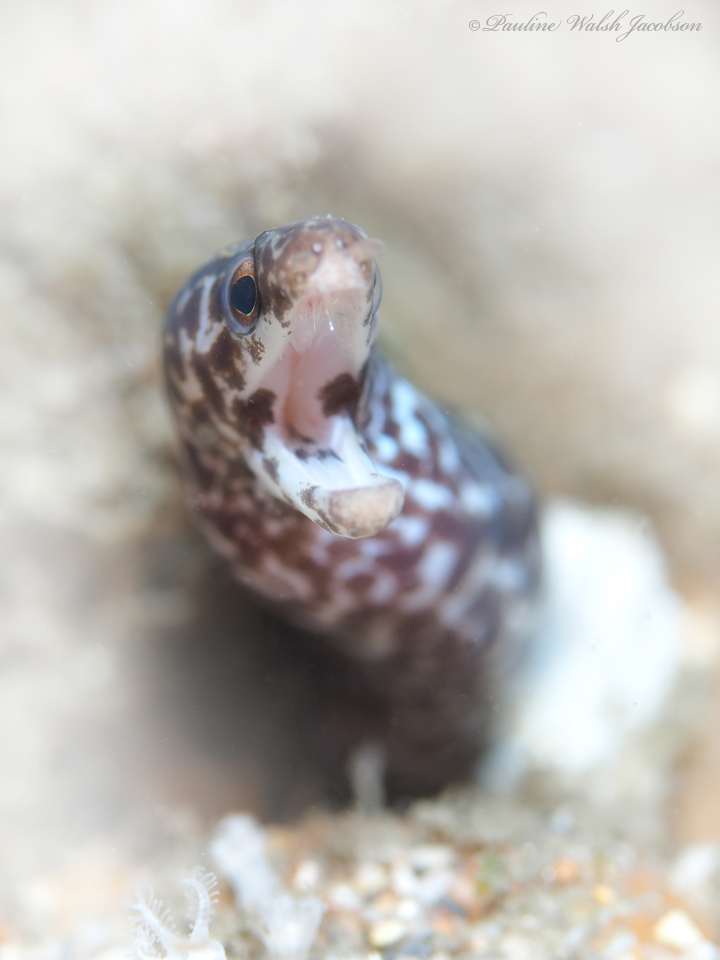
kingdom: Animalia
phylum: Chordata
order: Anguilliformes
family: Muraenidae
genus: Gymnothorax
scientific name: Gymnothorax moringa
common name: Spotted moray
